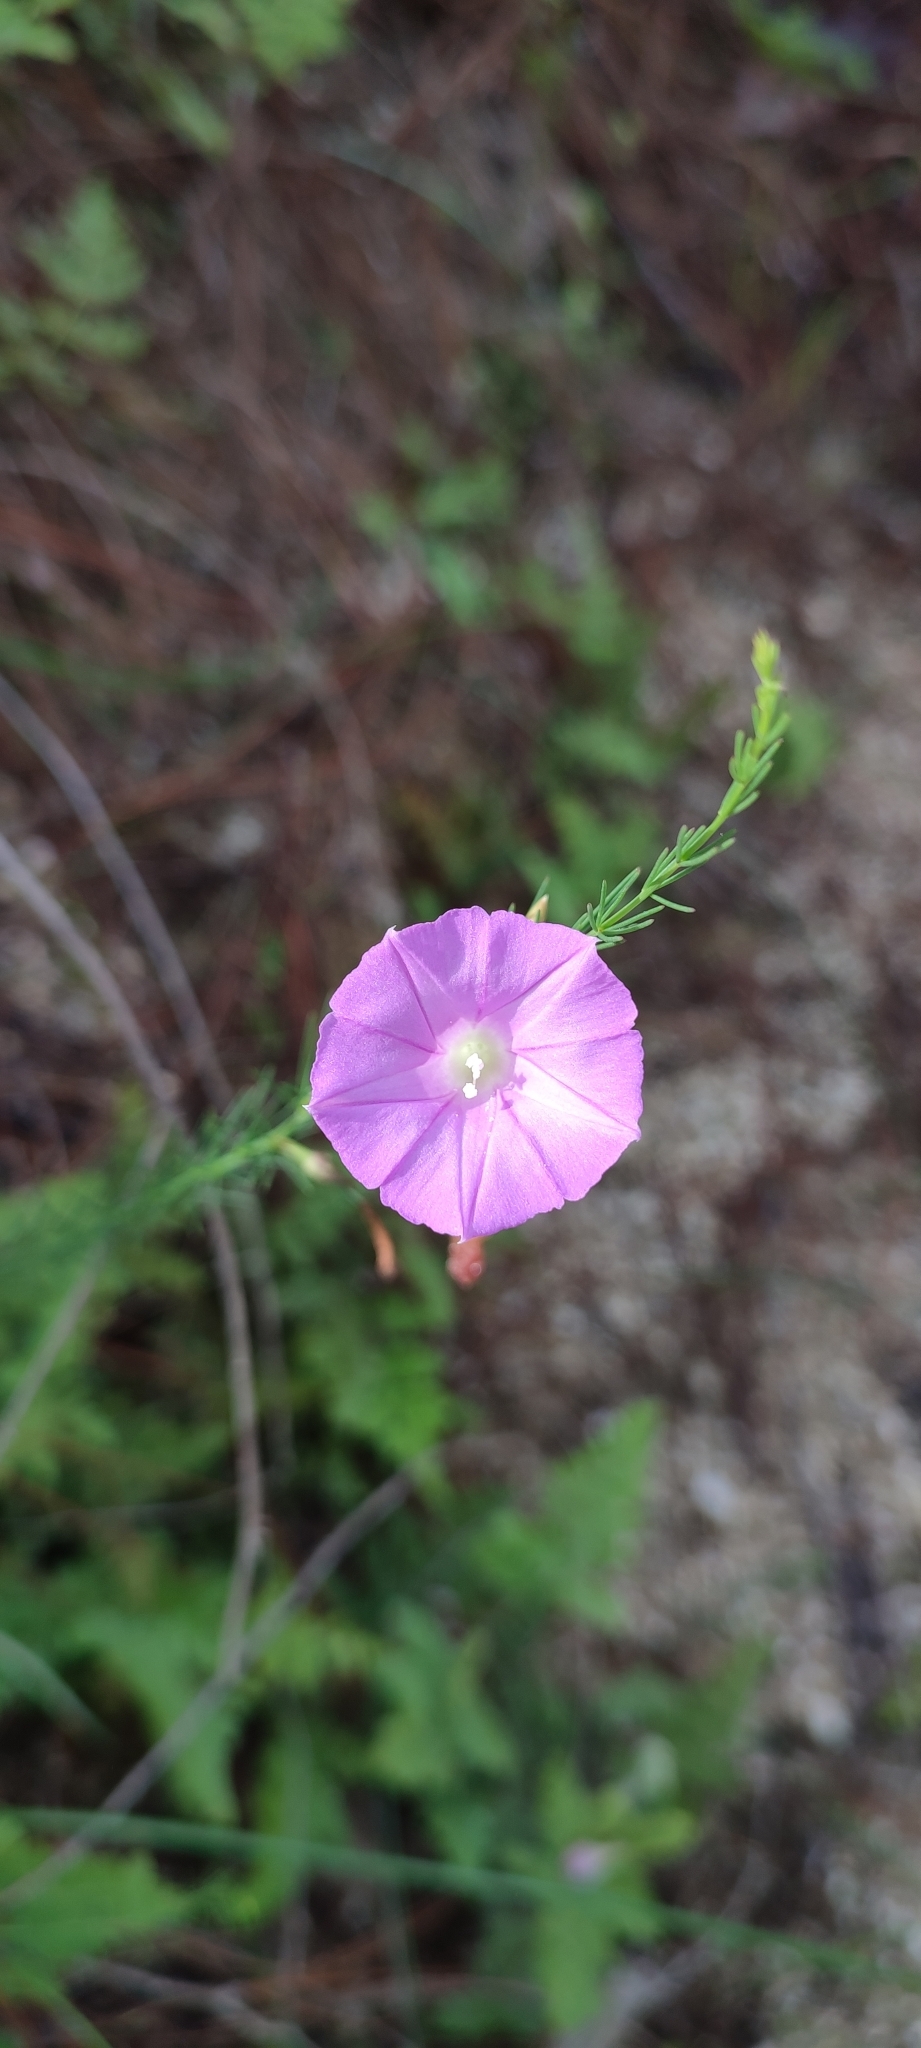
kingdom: Plantae
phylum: Tracheophyta
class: Magnoliopsida
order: Solanales
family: Convolvulaceae
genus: Ipomoea
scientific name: Ipomoea capillacea
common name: Purple morning-glory
